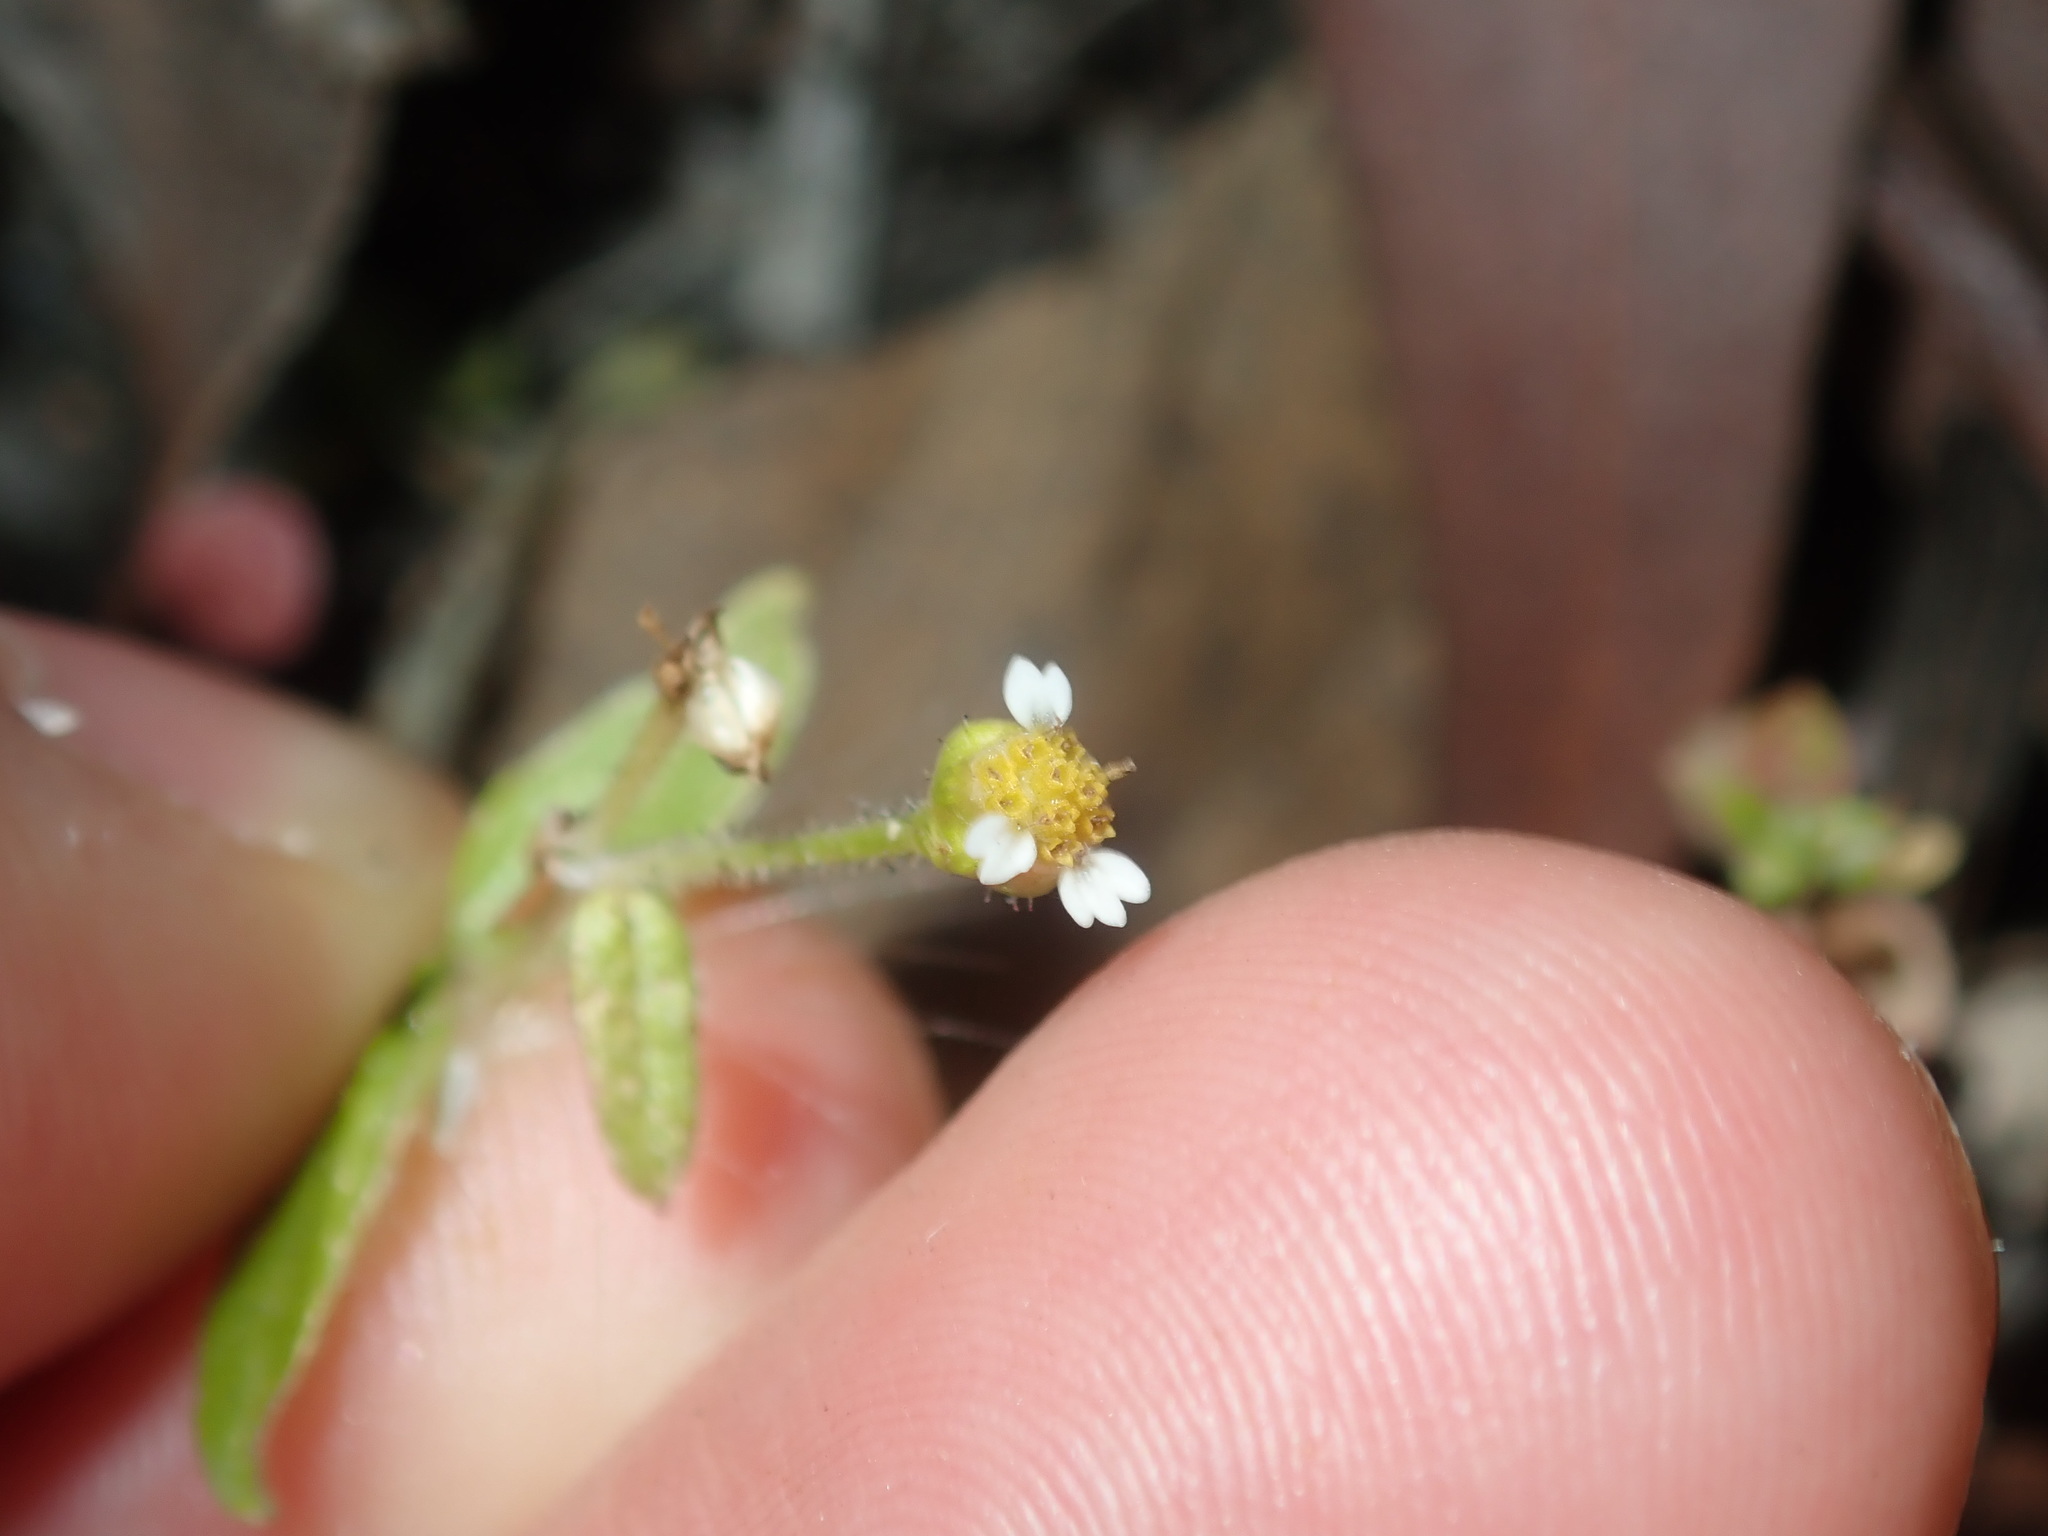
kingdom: Plantae
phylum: Tracheophyta
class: Magnoliopsida
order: Asterales
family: Asteraceae
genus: Galinsoga
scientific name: Galinsoga parviflora
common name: Gallant soldier
